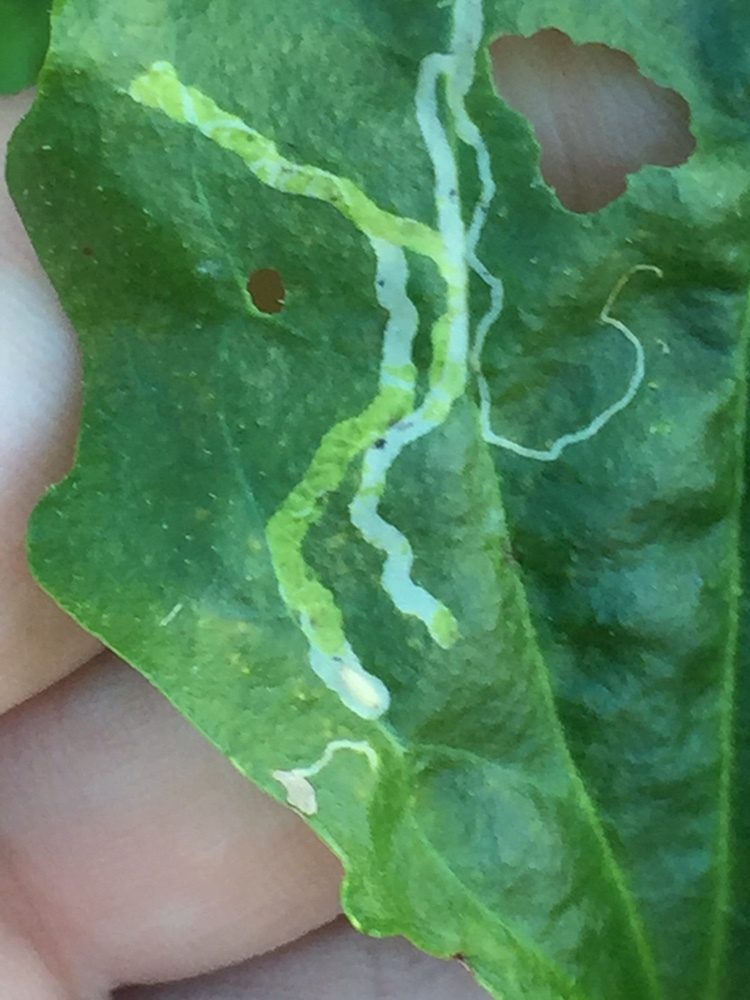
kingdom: Animalia
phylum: Arthropoda
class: Insecta
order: Diptera
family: Agromyzidae
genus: Phytomyza
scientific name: Phytomyza plantaginis
